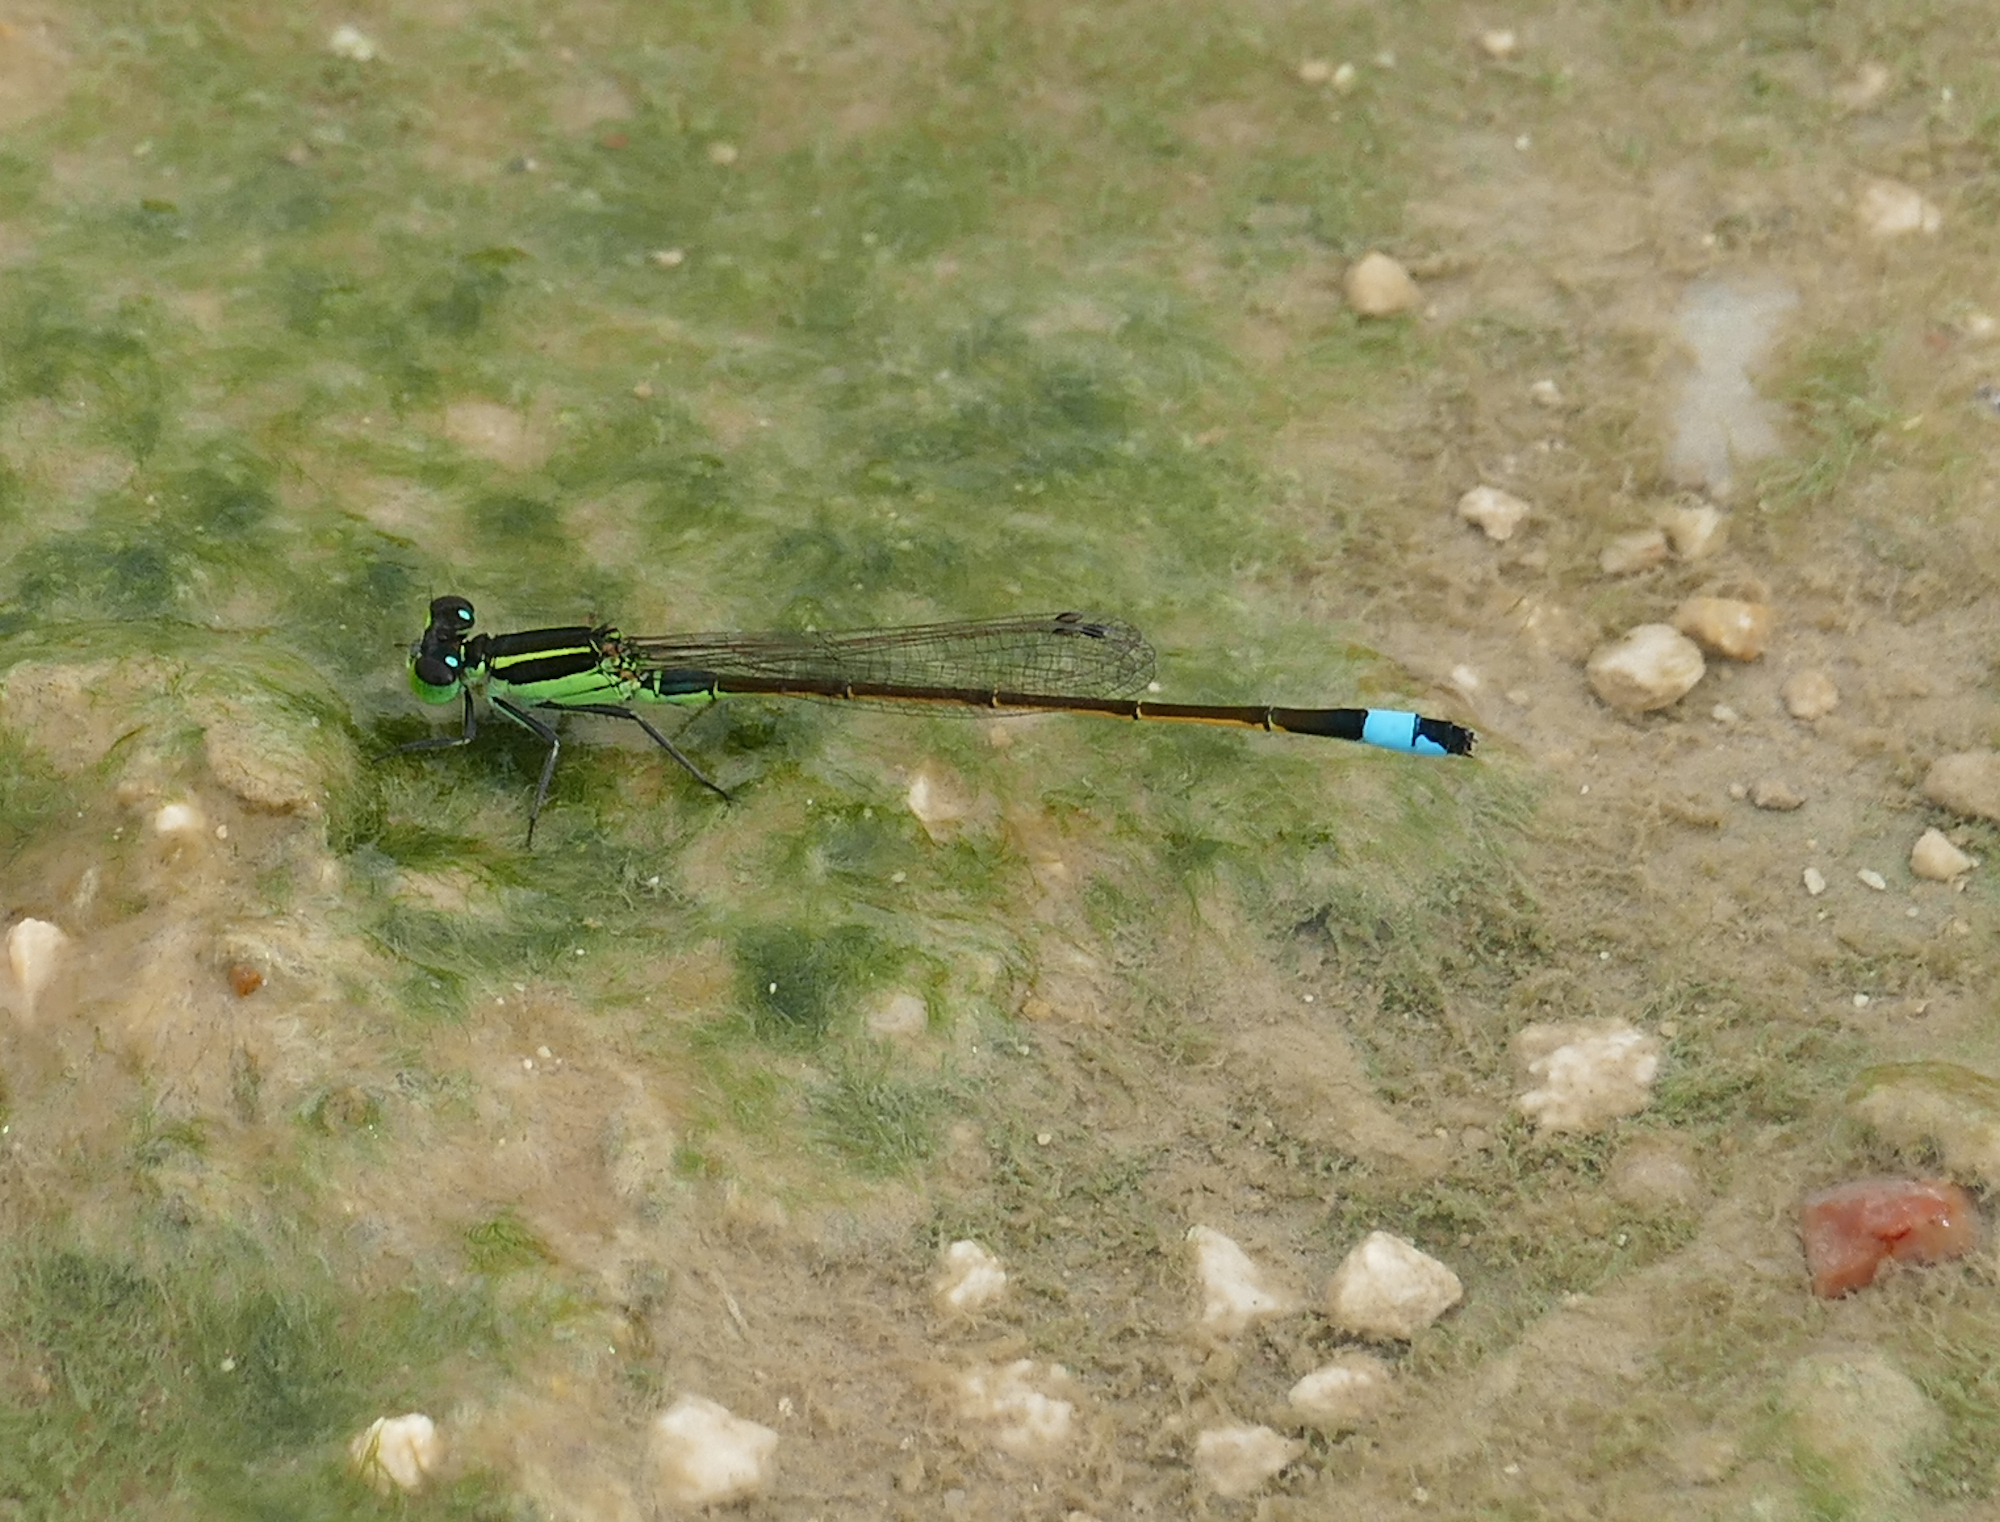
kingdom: Animalia
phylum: Arthropoda
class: Insecta
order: Odonata
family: Coenagrionidae
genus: Ischnura
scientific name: Ischnura ramburii
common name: Rambur's forktail
